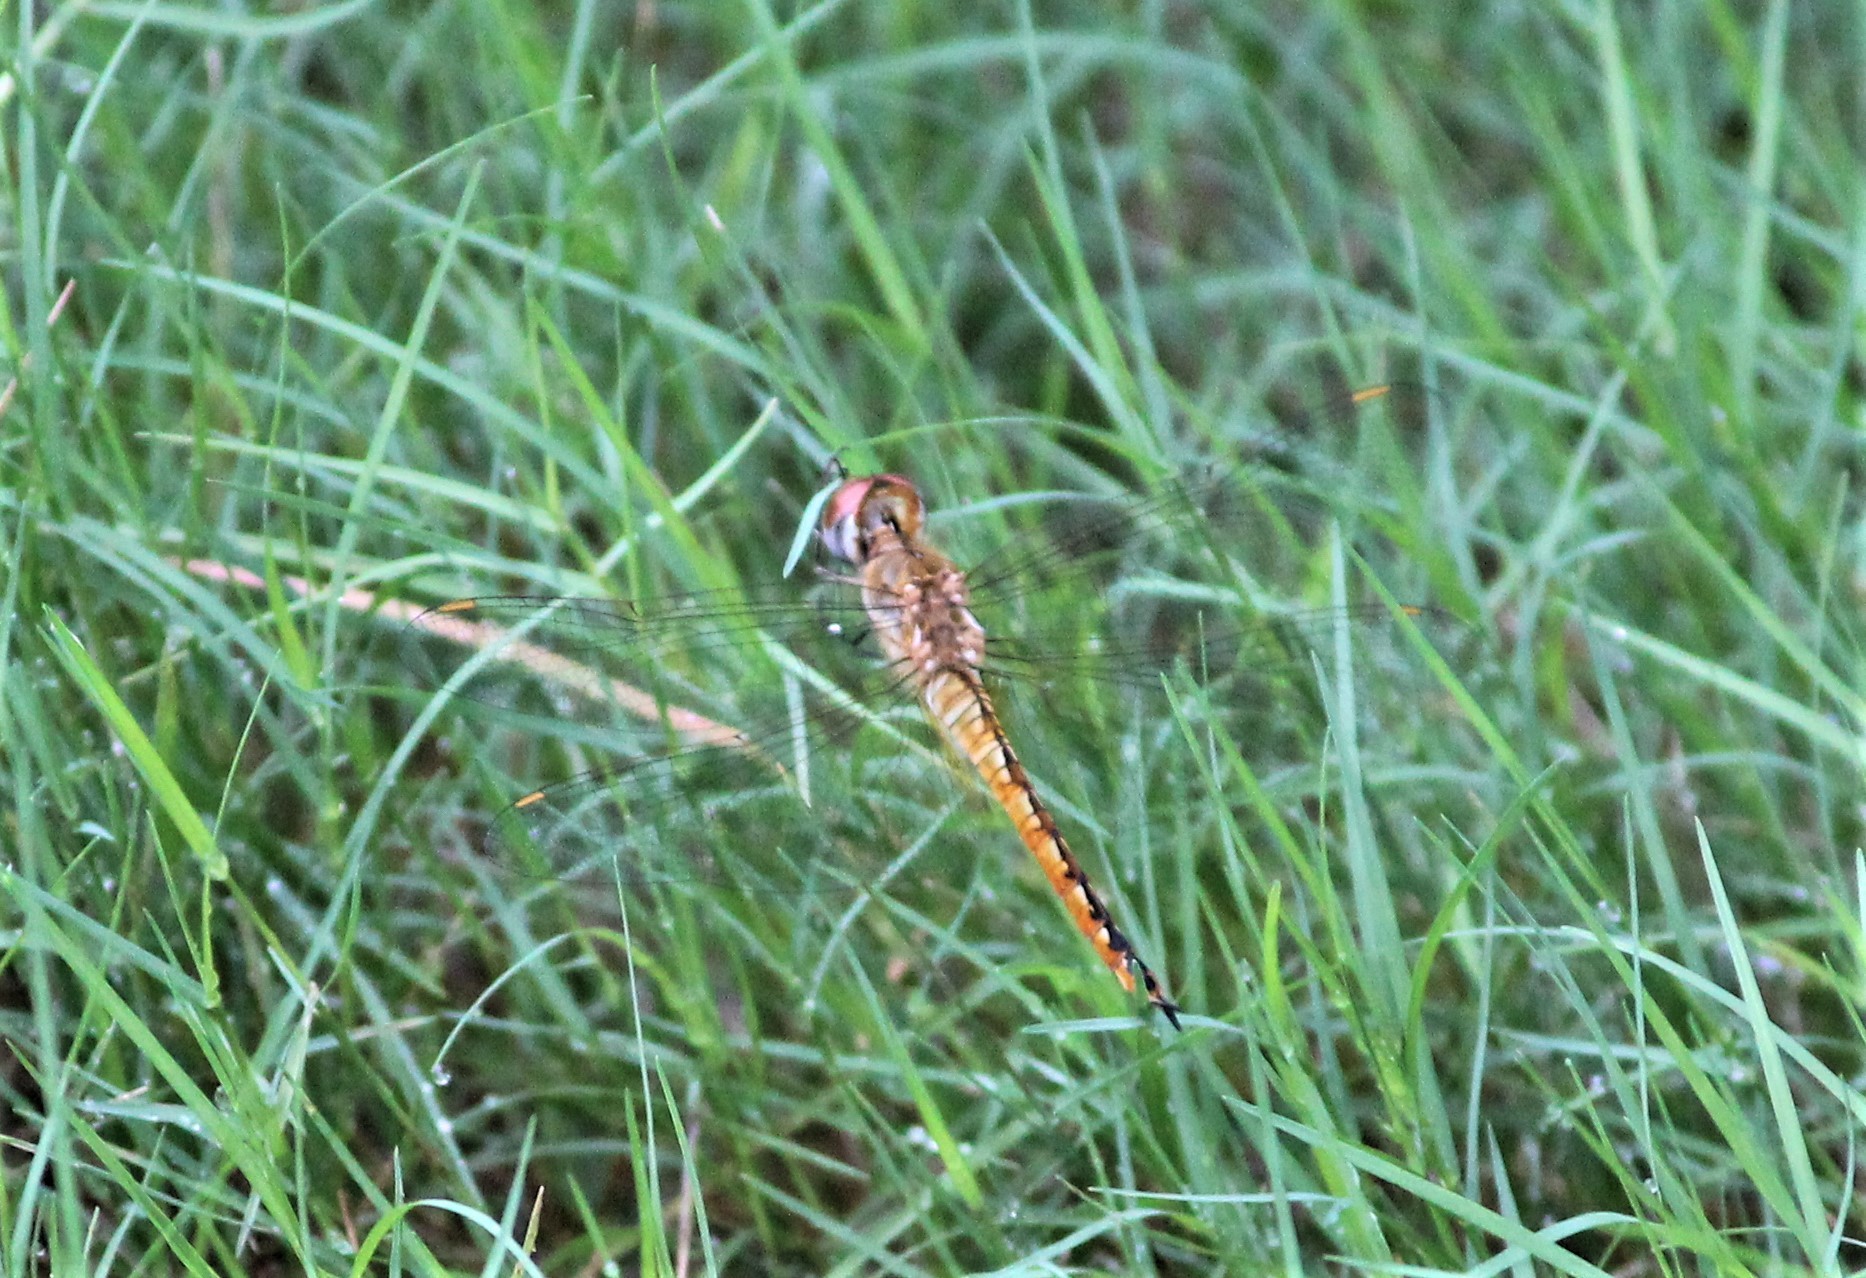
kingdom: Animalia
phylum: Arthropoda
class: Insecta
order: Odonata
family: Libellulidae
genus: Pantala
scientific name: Pantala flavescens
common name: Wandering glider
